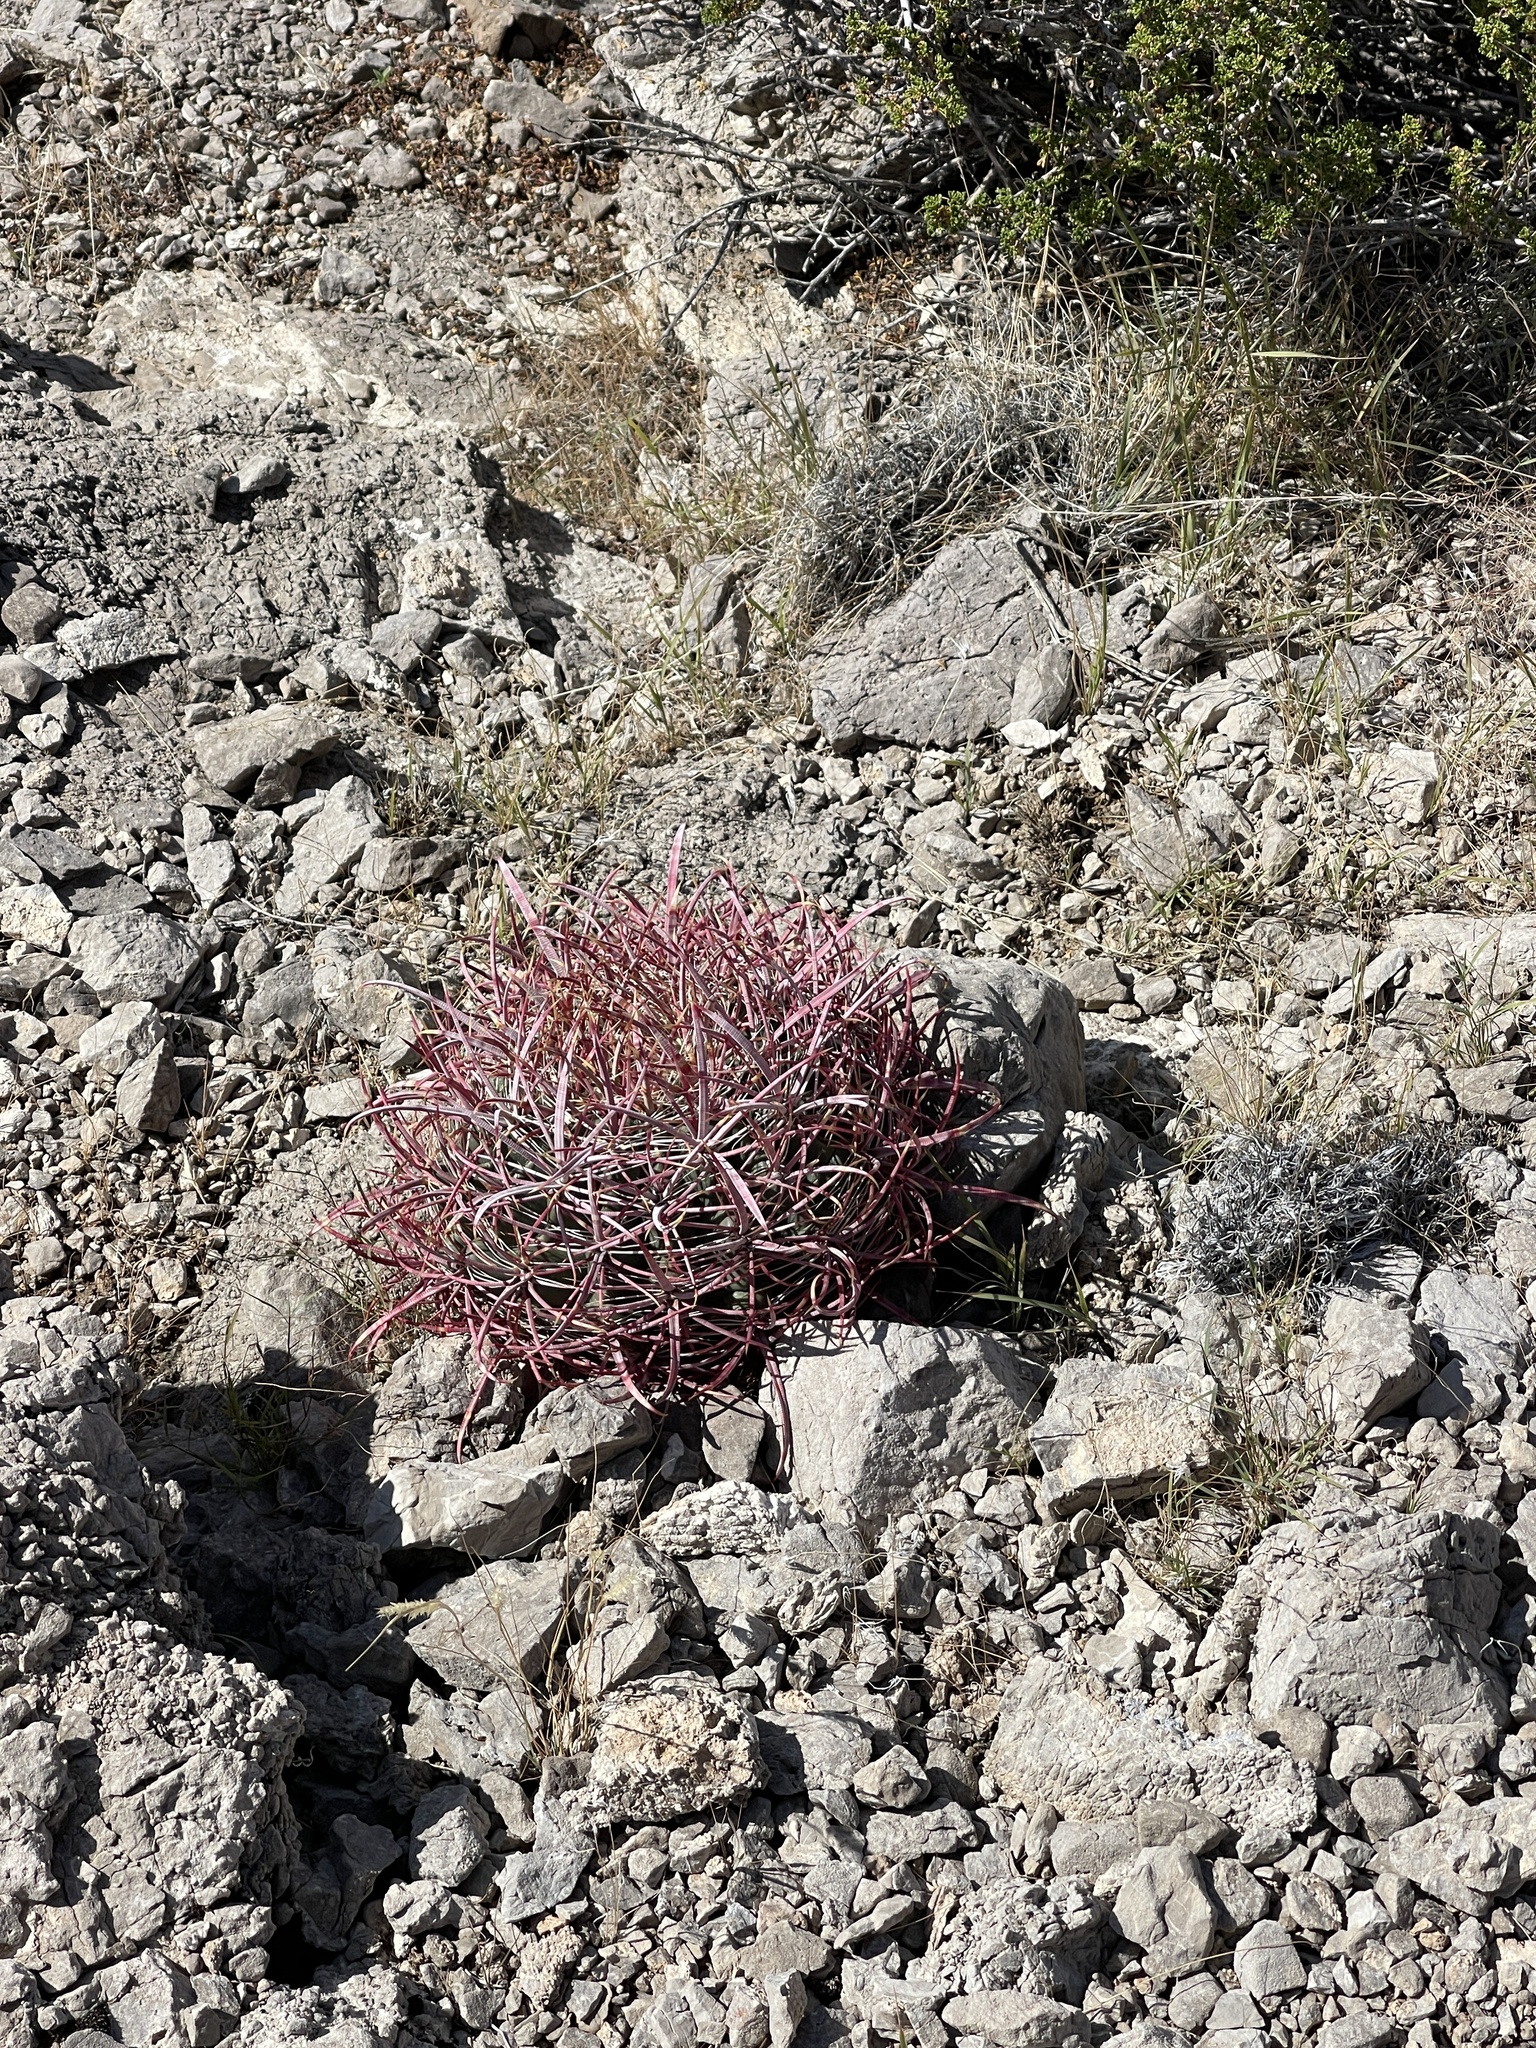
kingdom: Plantae
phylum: Tracheophyta
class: Magnoliopsida
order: Caryophyllales
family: Cactaceae
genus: Ferocactus
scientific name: Ferocactus cylindraceus
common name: California barrel cactus
